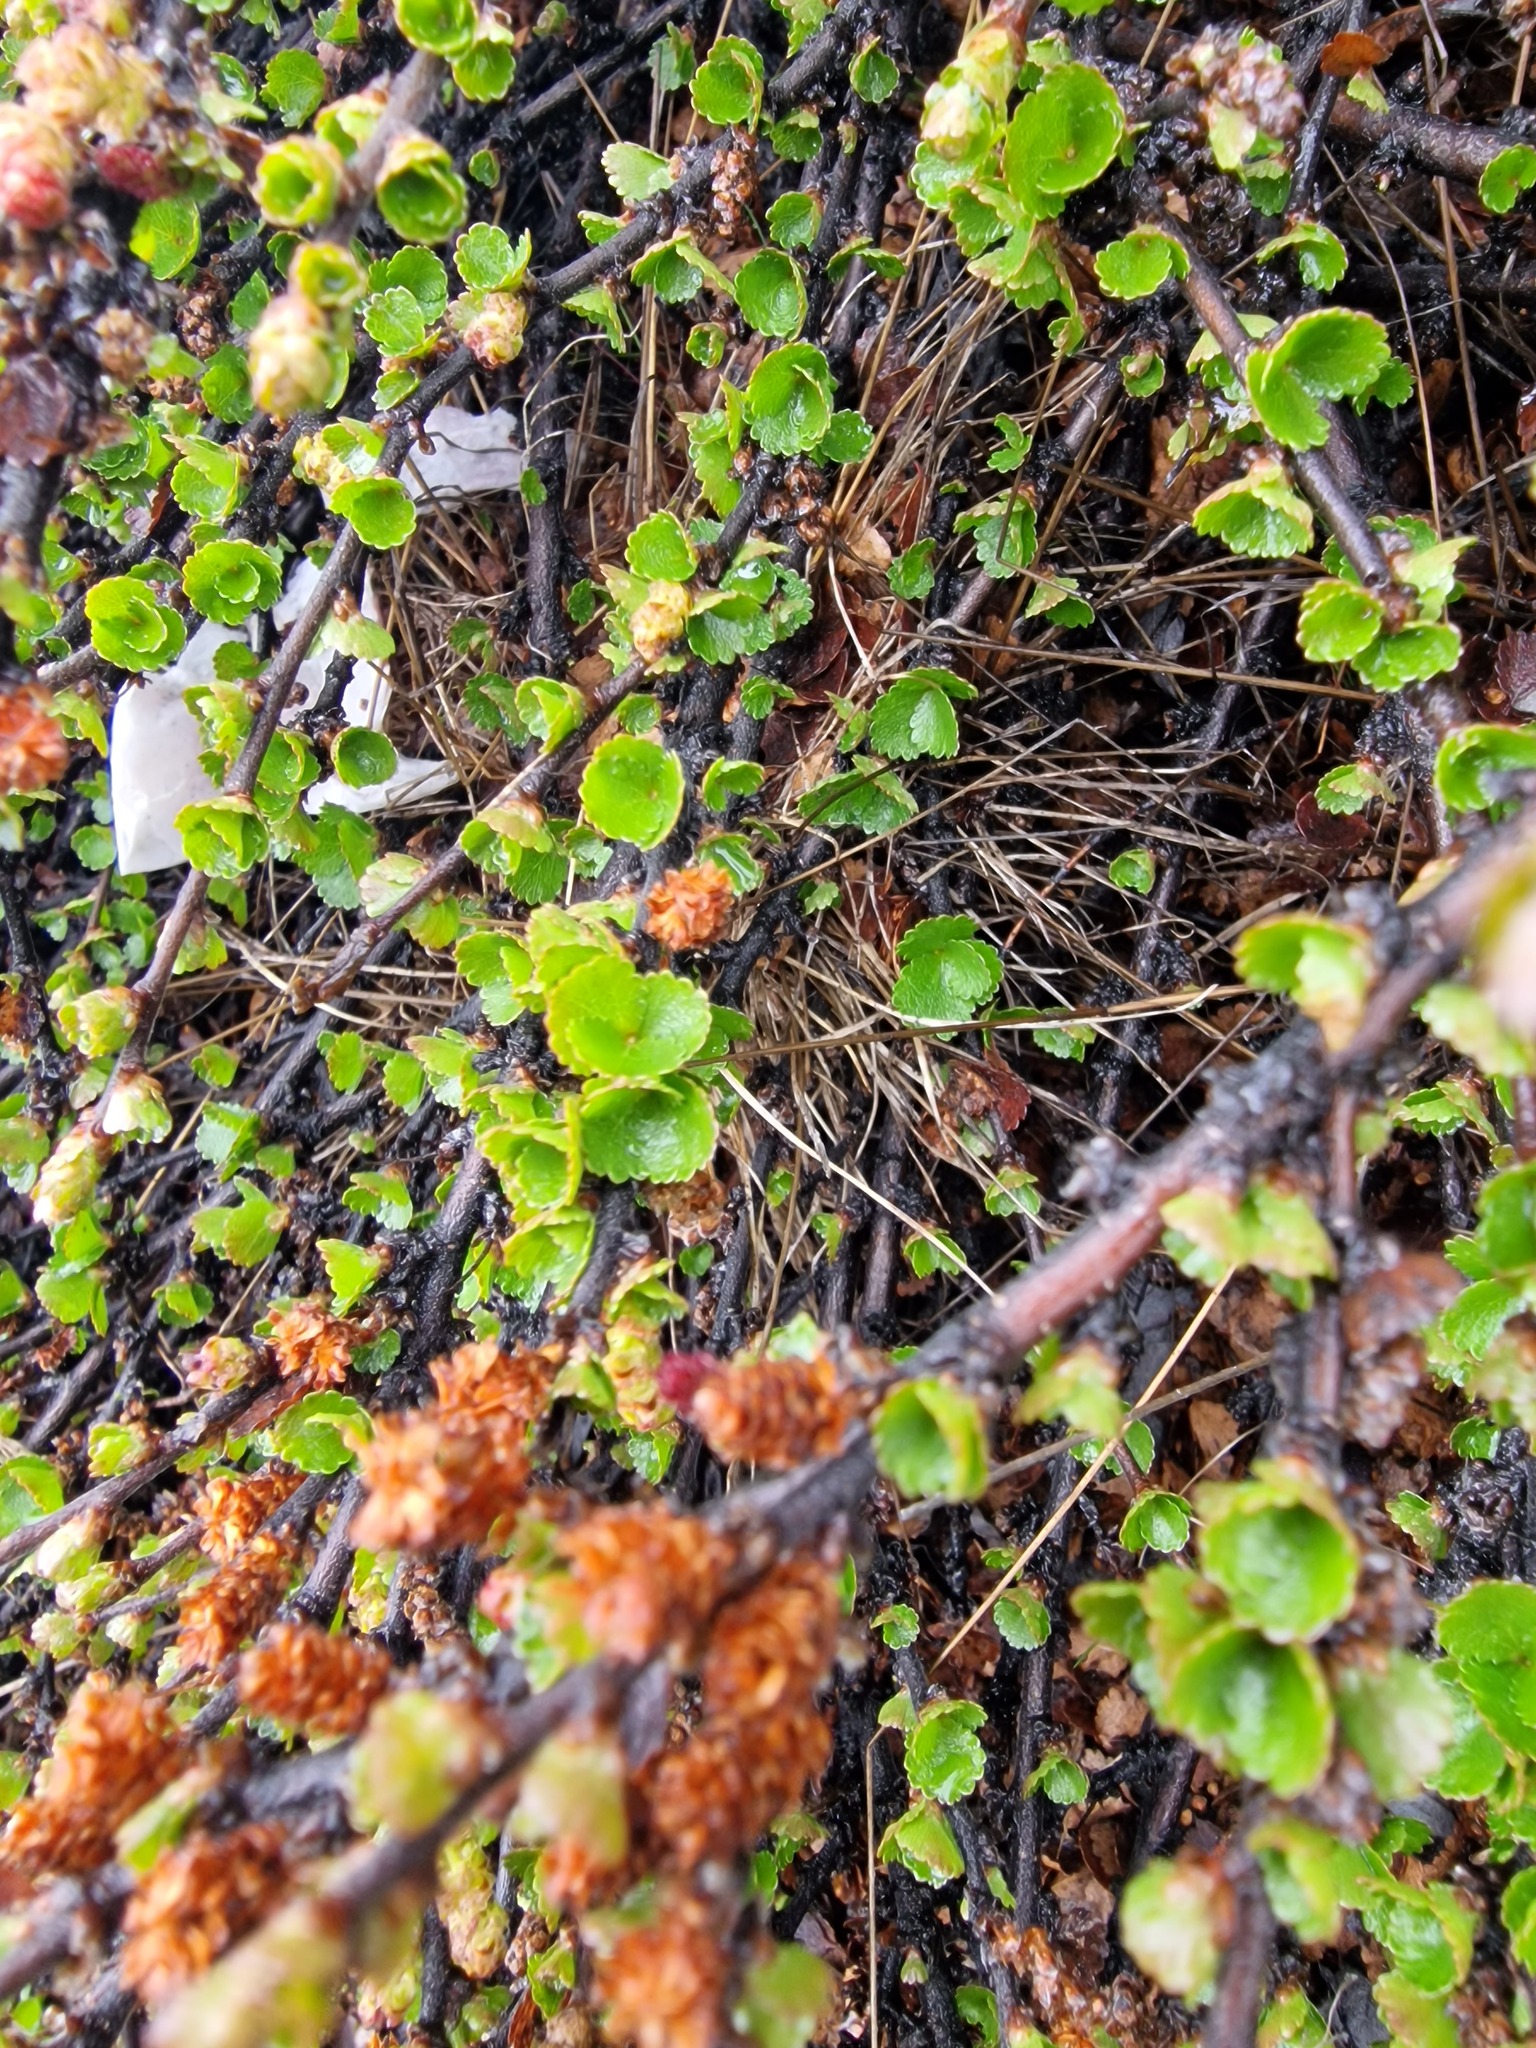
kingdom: Plantae
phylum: Tracheophyta
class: Magnoliopsida
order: Fagales
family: Betulaceae
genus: Betula
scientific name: Betula nana
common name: Arctic dwarf birch
